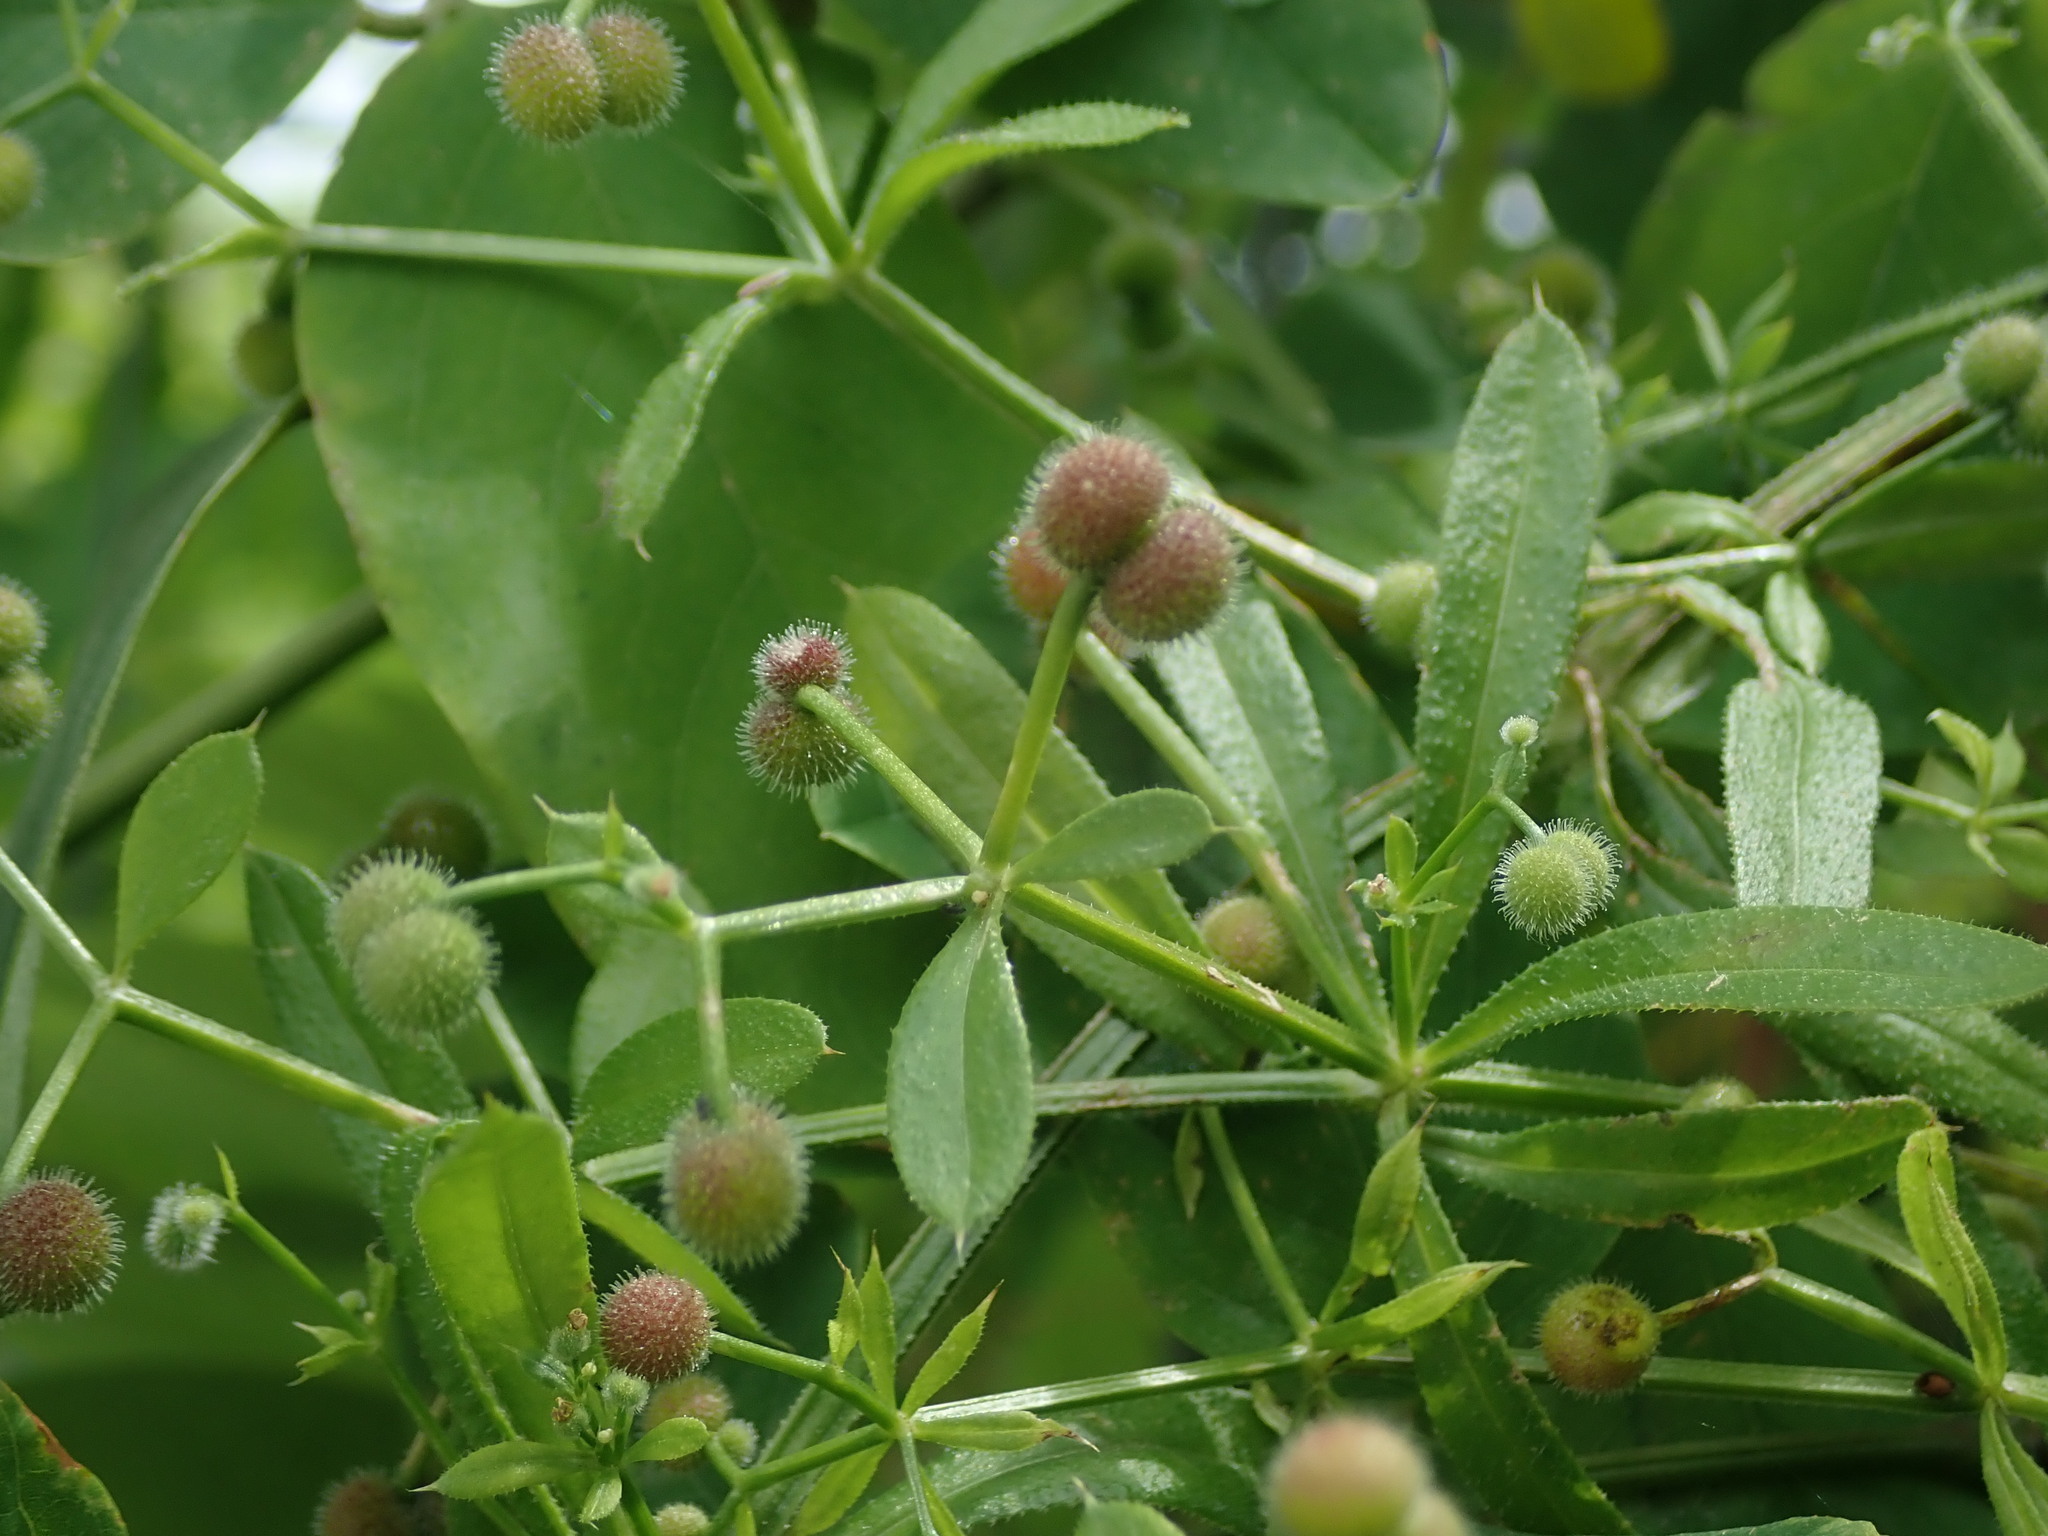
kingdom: Plantae
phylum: Tracheophyta
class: Magnoliopsida
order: Gentianales
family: Rubiaceae
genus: Galium
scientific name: Galium aparine
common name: Cleavers
